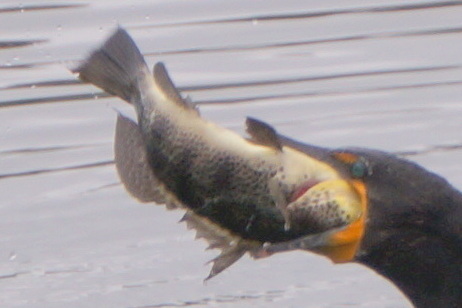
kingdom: Animalia
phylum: Chordata
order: Perciformes
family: Serranidae
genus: Paralabrax
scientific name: Paralabrax maculatofasciatus
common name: Spotted sand bass
